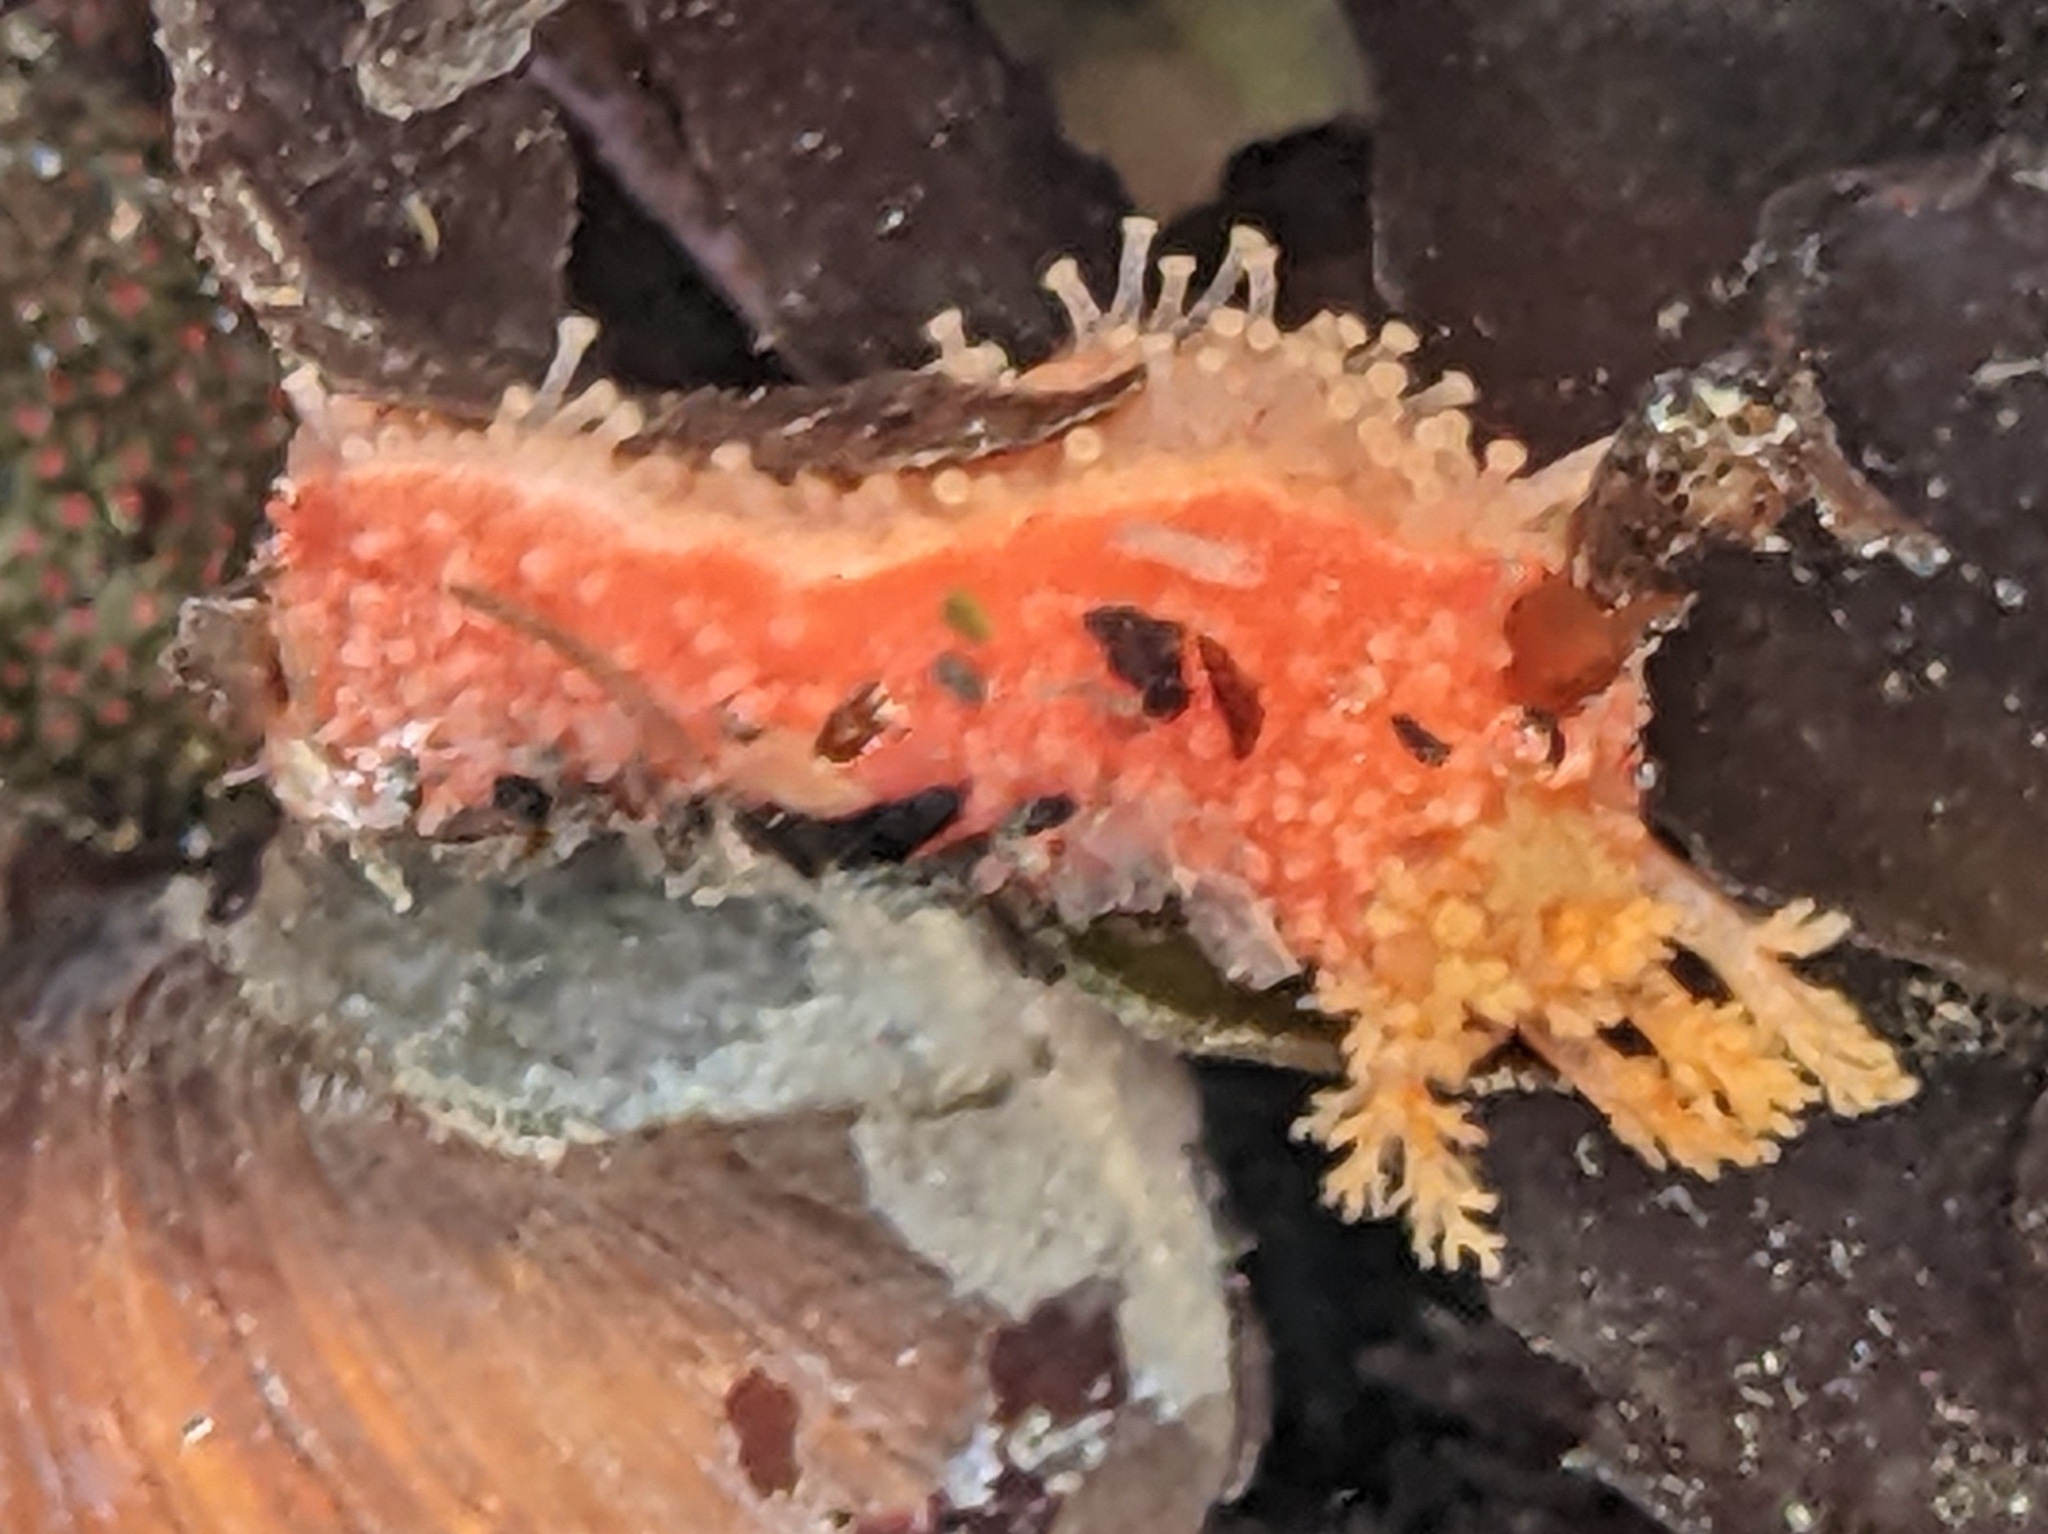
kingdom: Animalia
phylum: Echinodermata
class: Holothuroidea
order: Dendrochirotida
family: Psolidae
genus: Lissothuria
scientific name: Lissothuria nutriens
